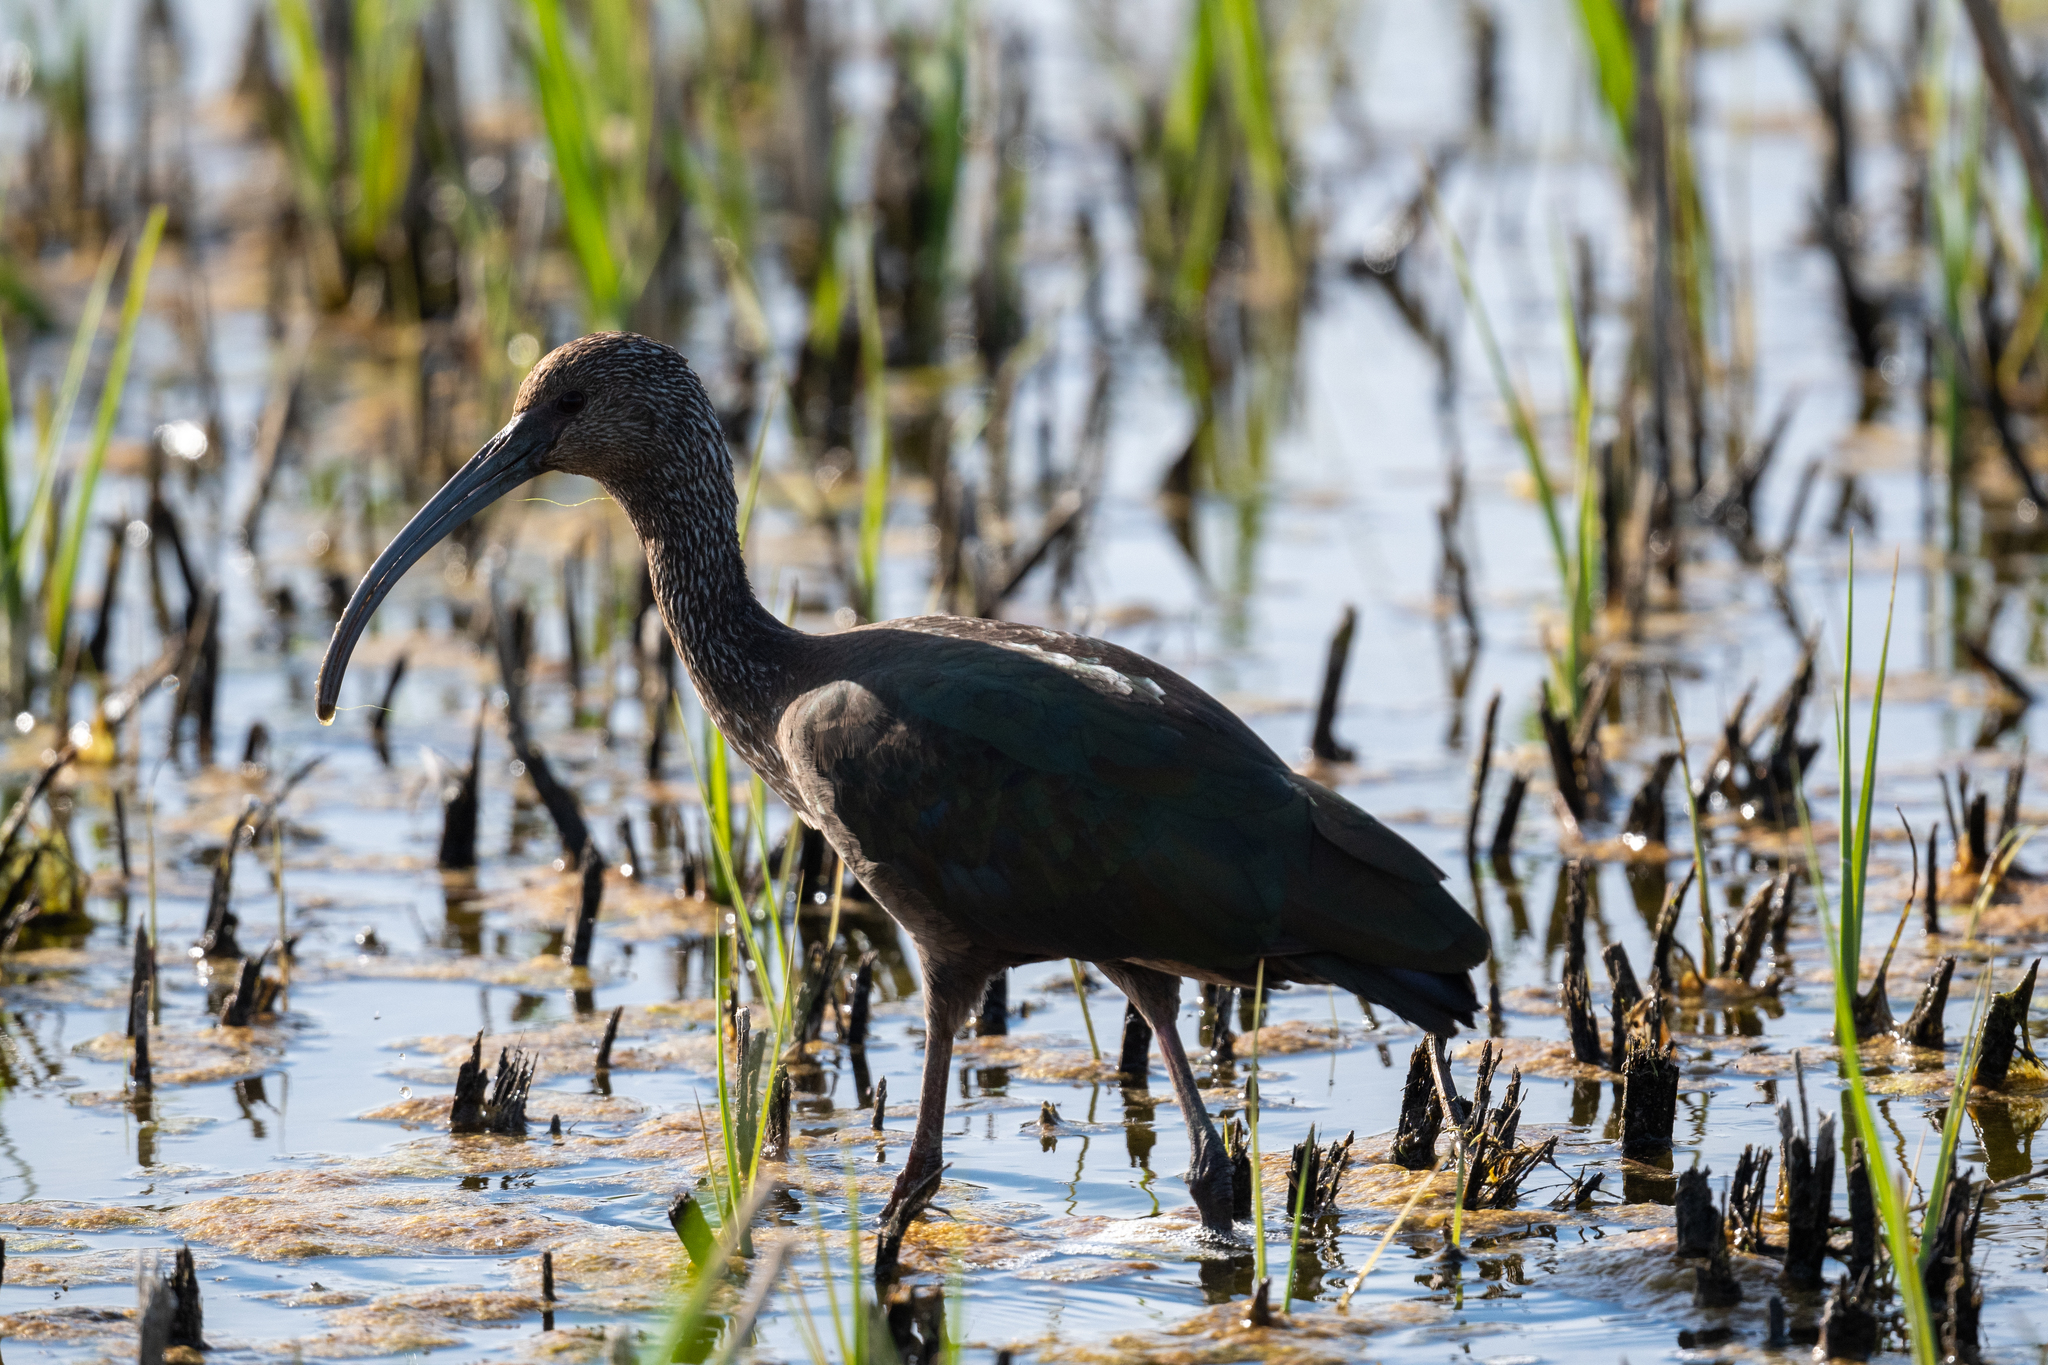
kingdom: Animalia
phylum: Chordata
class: Aves
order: Pelecaniformes
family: Threskiornithidae
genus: Plegadis
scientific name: Plegadis chihi
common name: White-faced ibis
